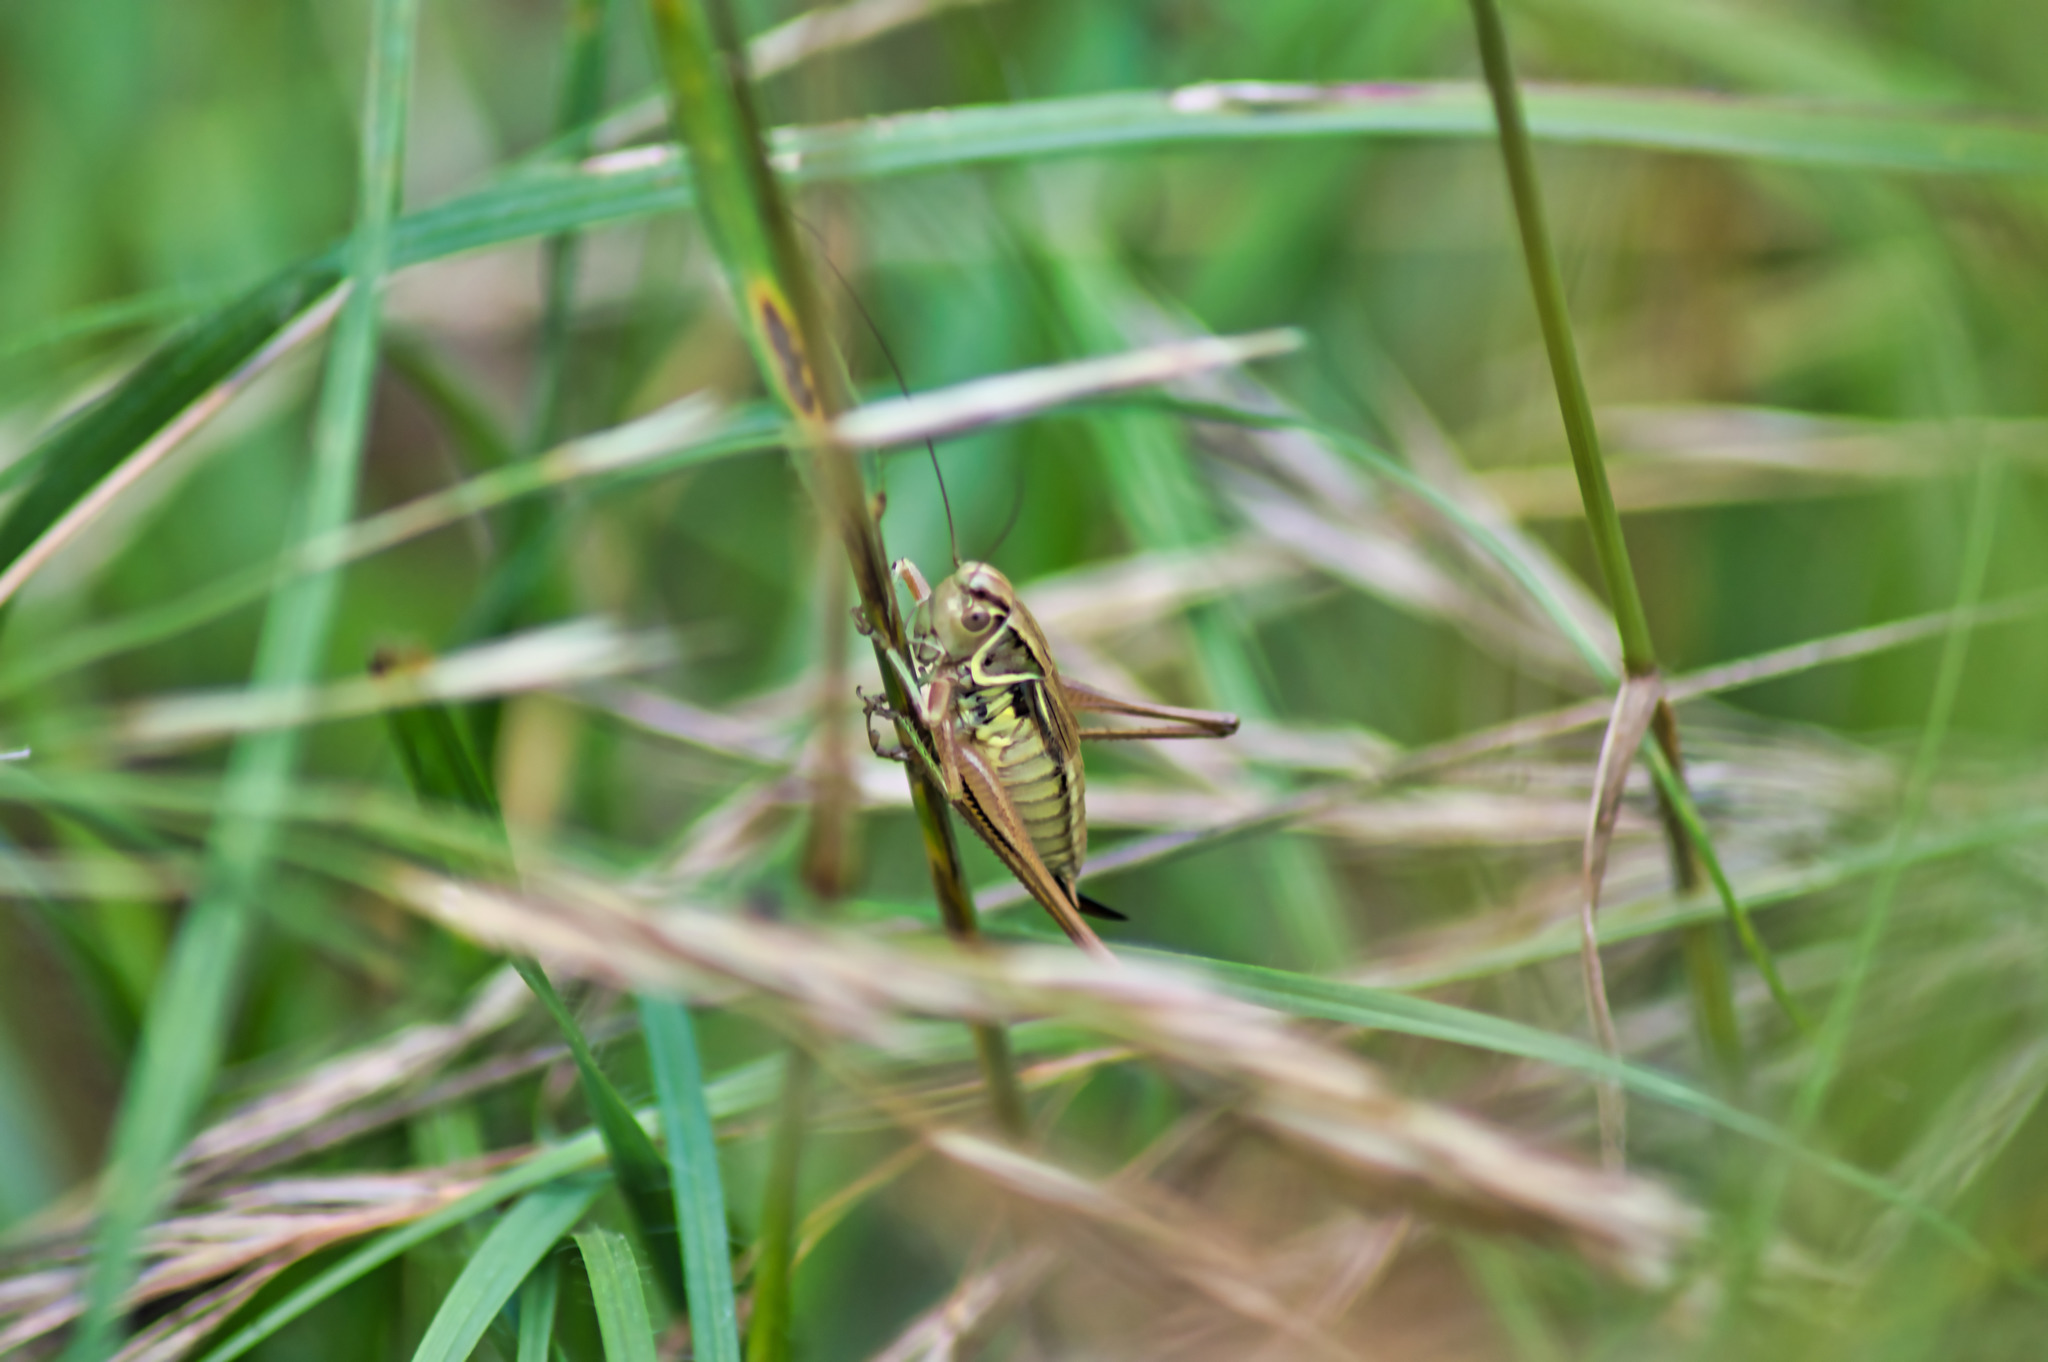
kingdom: Animalia
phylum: Arthropoda
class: Insecta
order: Orthoptera
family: Tettigoniidae
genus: Roeseliana
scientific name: Roeseliana roeselii
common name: Roesel's bush cricket
